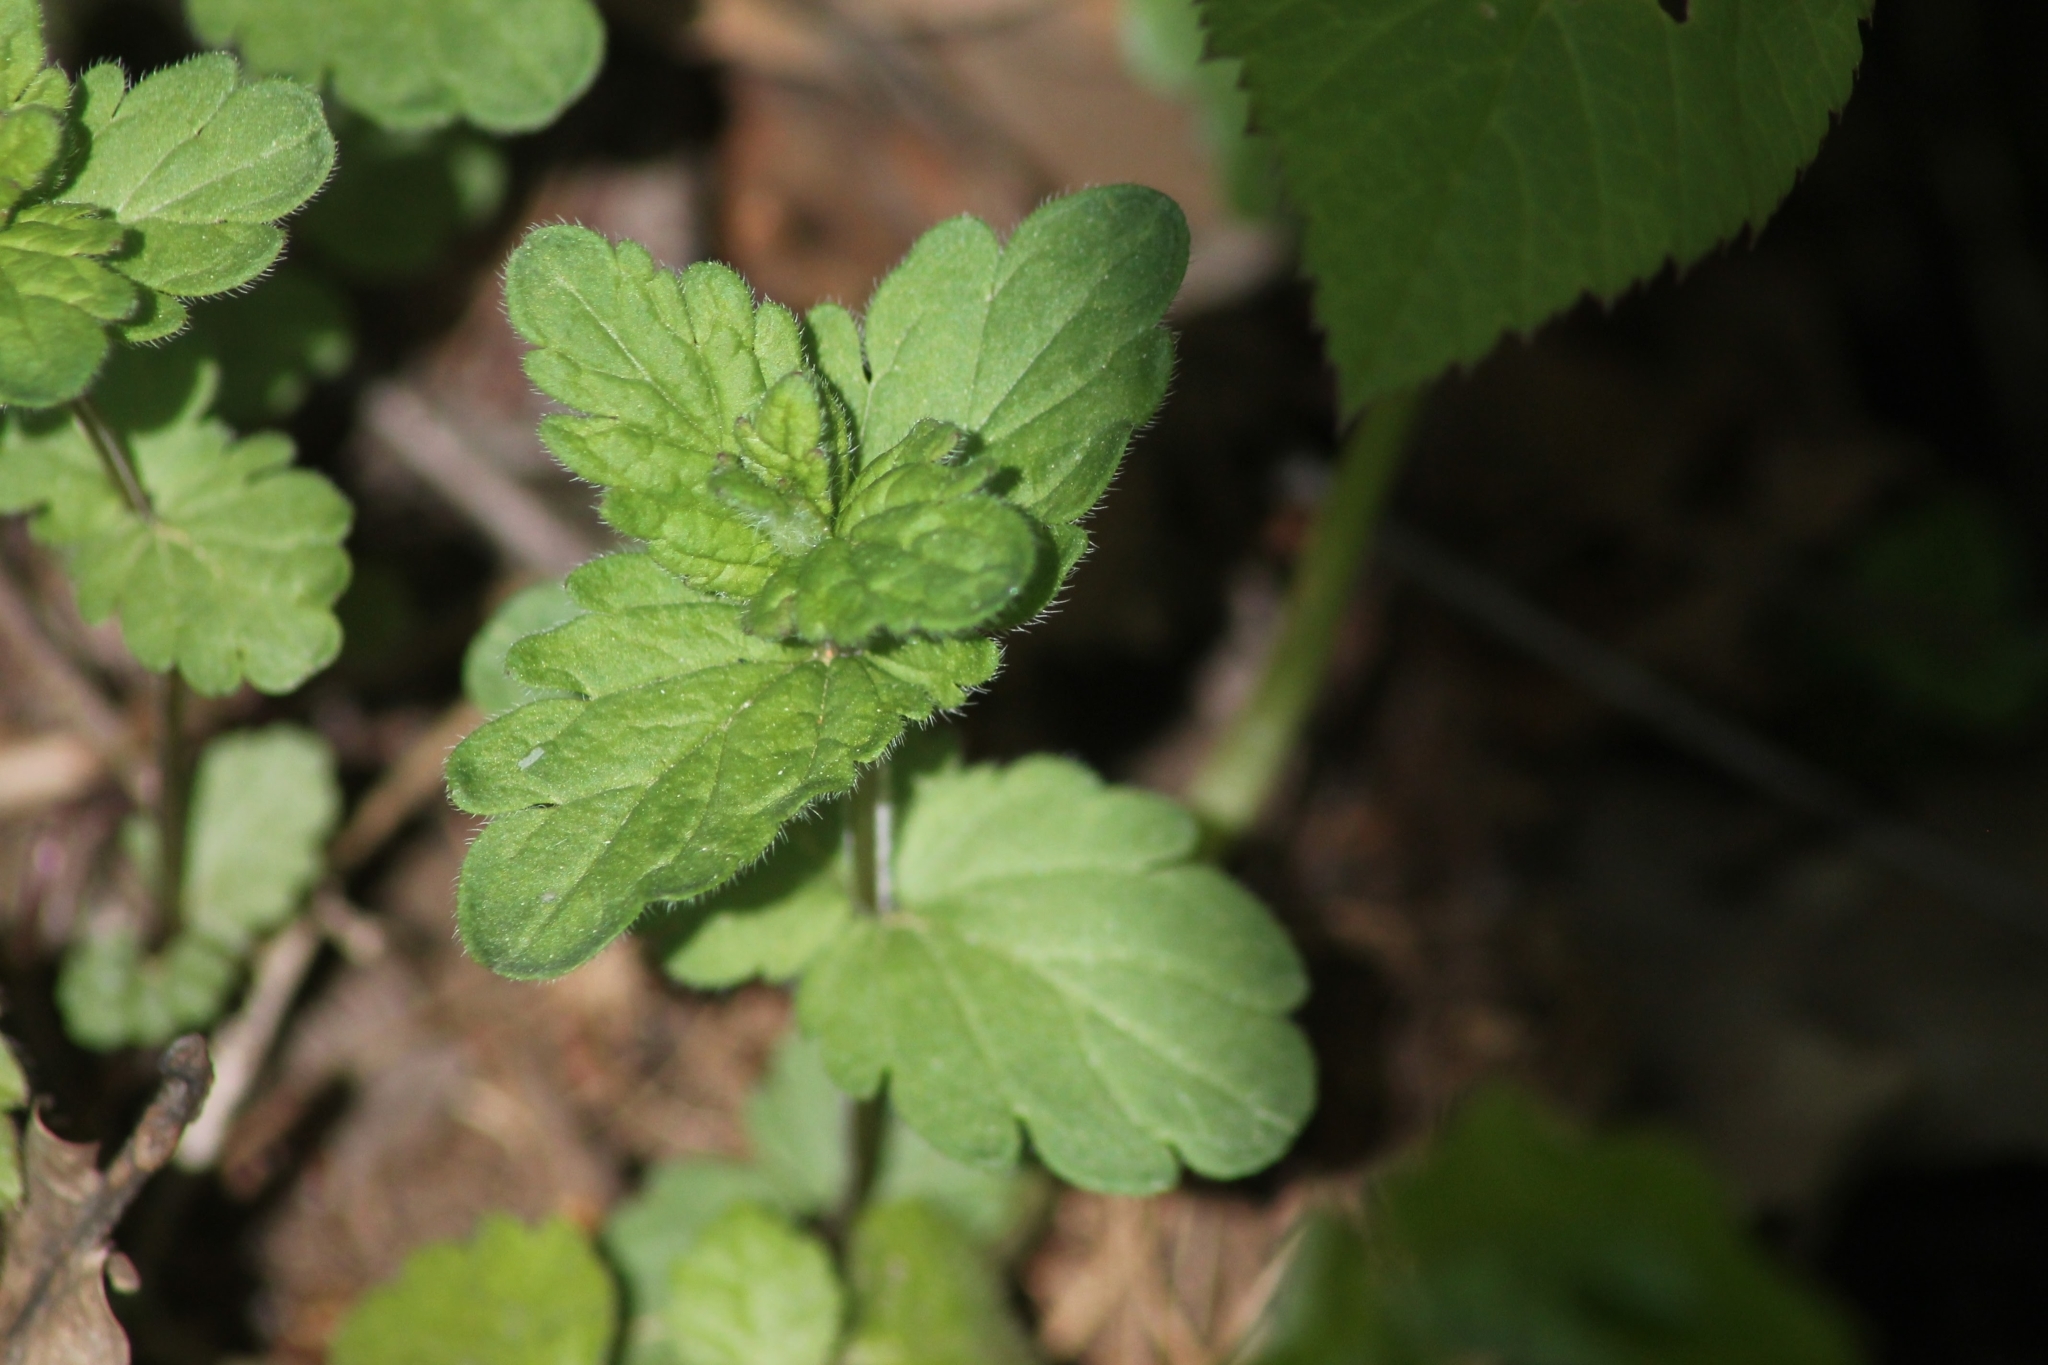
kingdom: Plantae
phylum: Tracheophyta
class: Magnoliopsida
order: Lamiales
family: Plantaginaceae
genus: Veronica
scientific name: Veronica chamaedrys
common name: Germander speedwell
